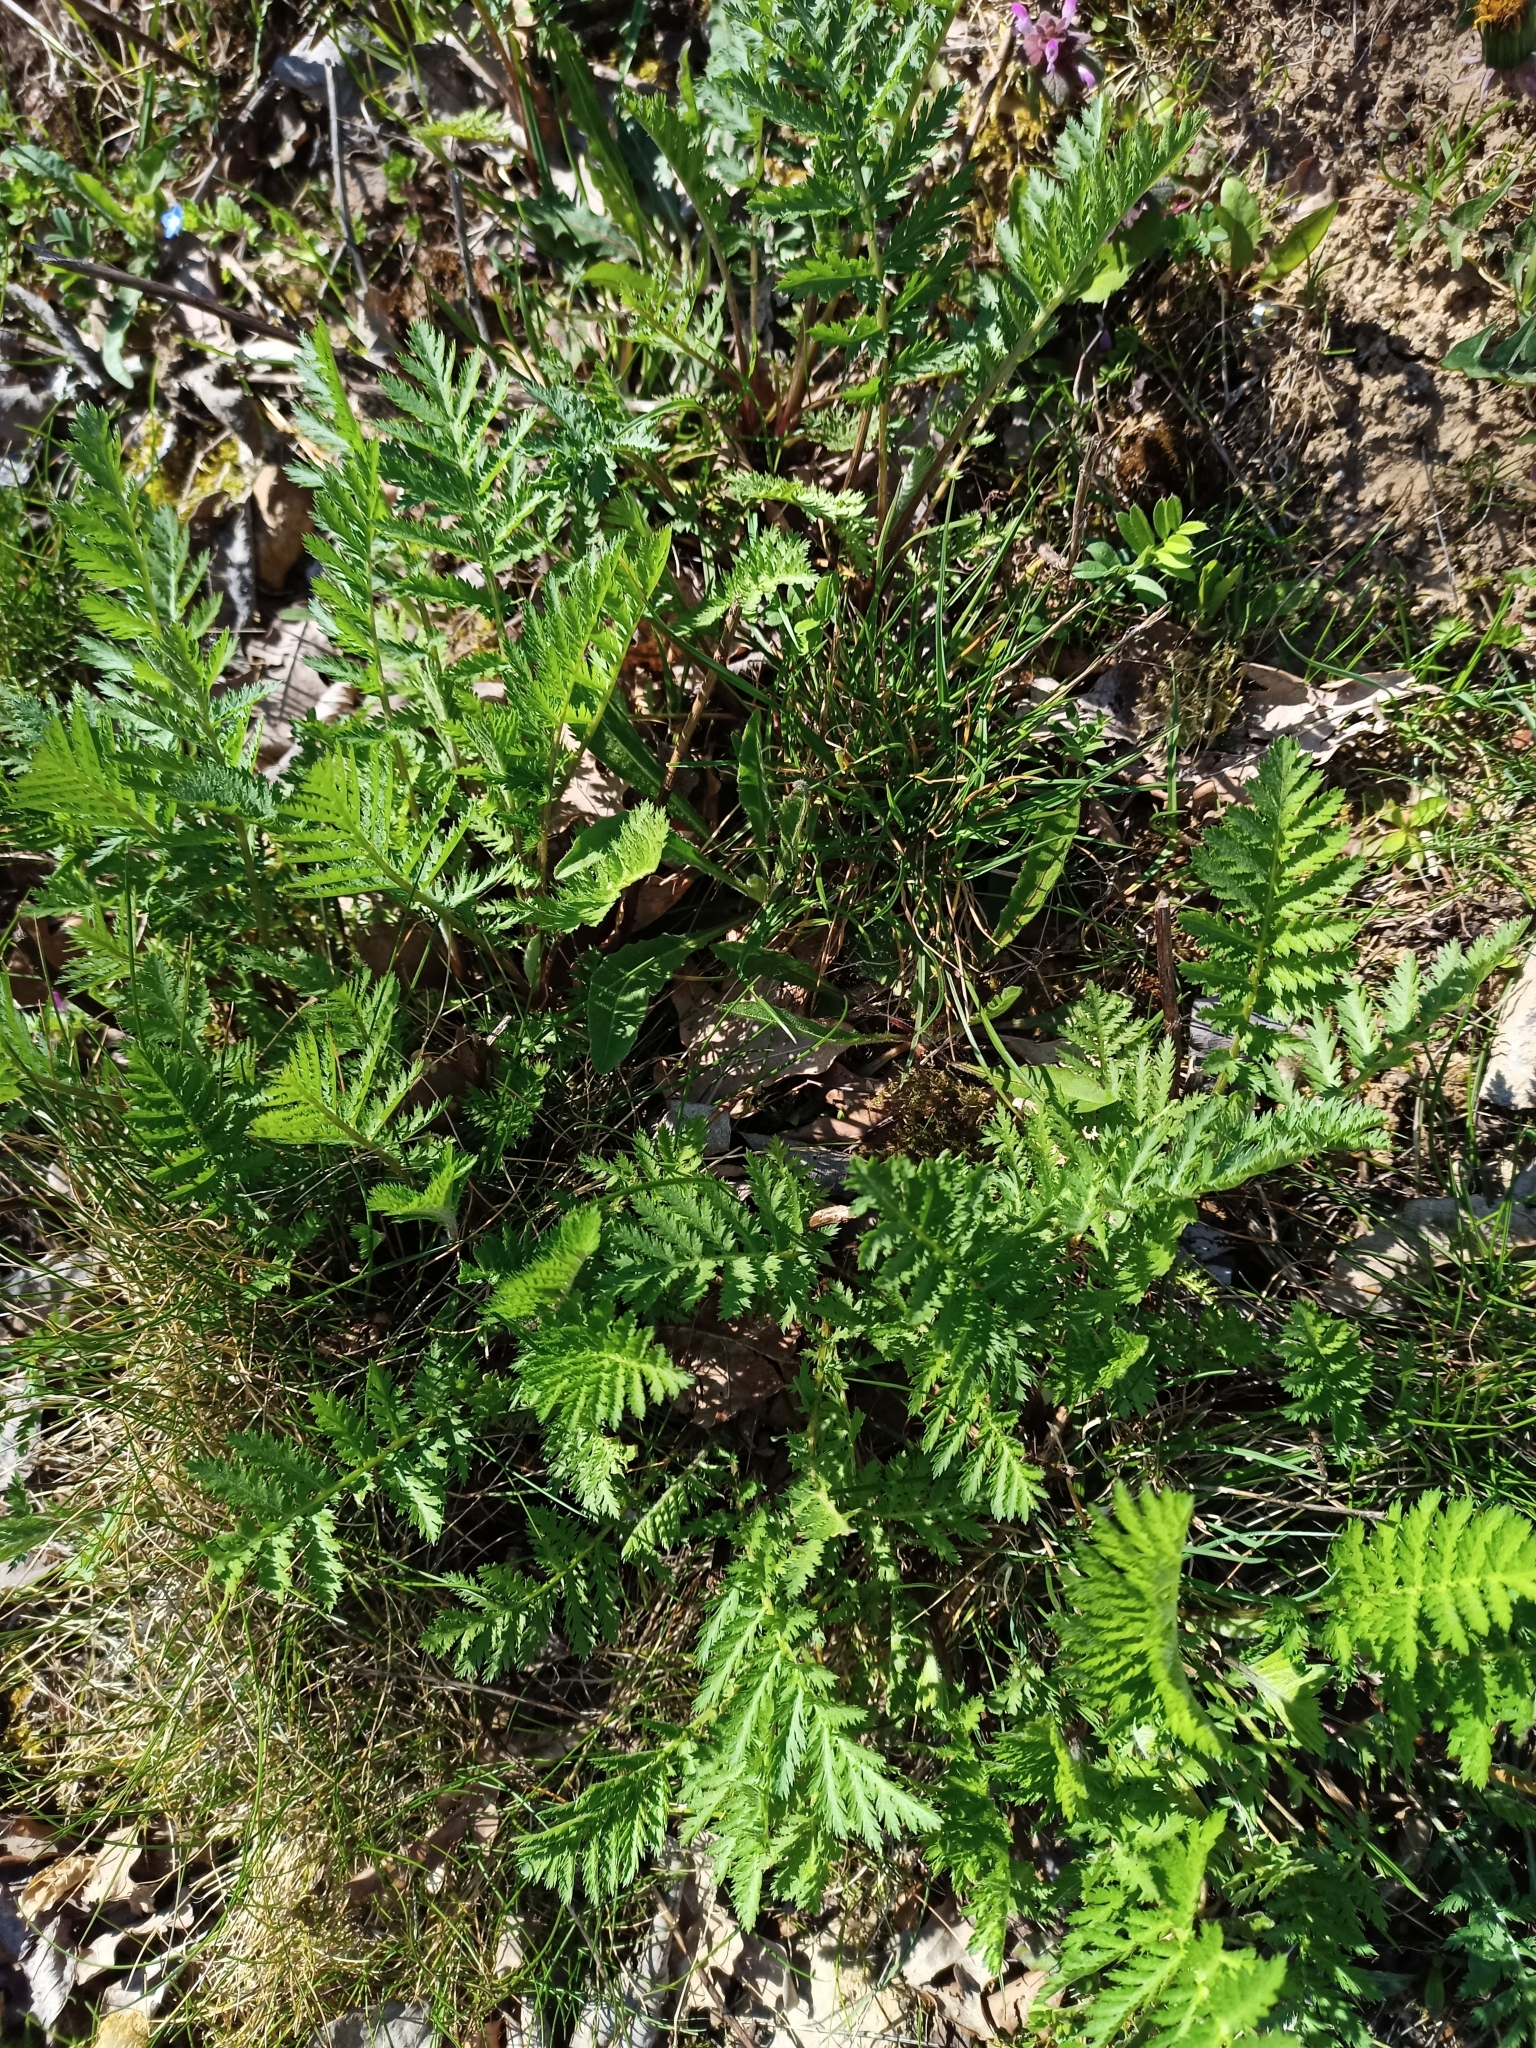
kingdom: Plantae
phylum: Tracheophyta
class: Magnoliopsida
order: Asterales
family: Asteraceae
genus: Tanacetum
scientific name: Tanacetum vulgare
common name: Common tansy
